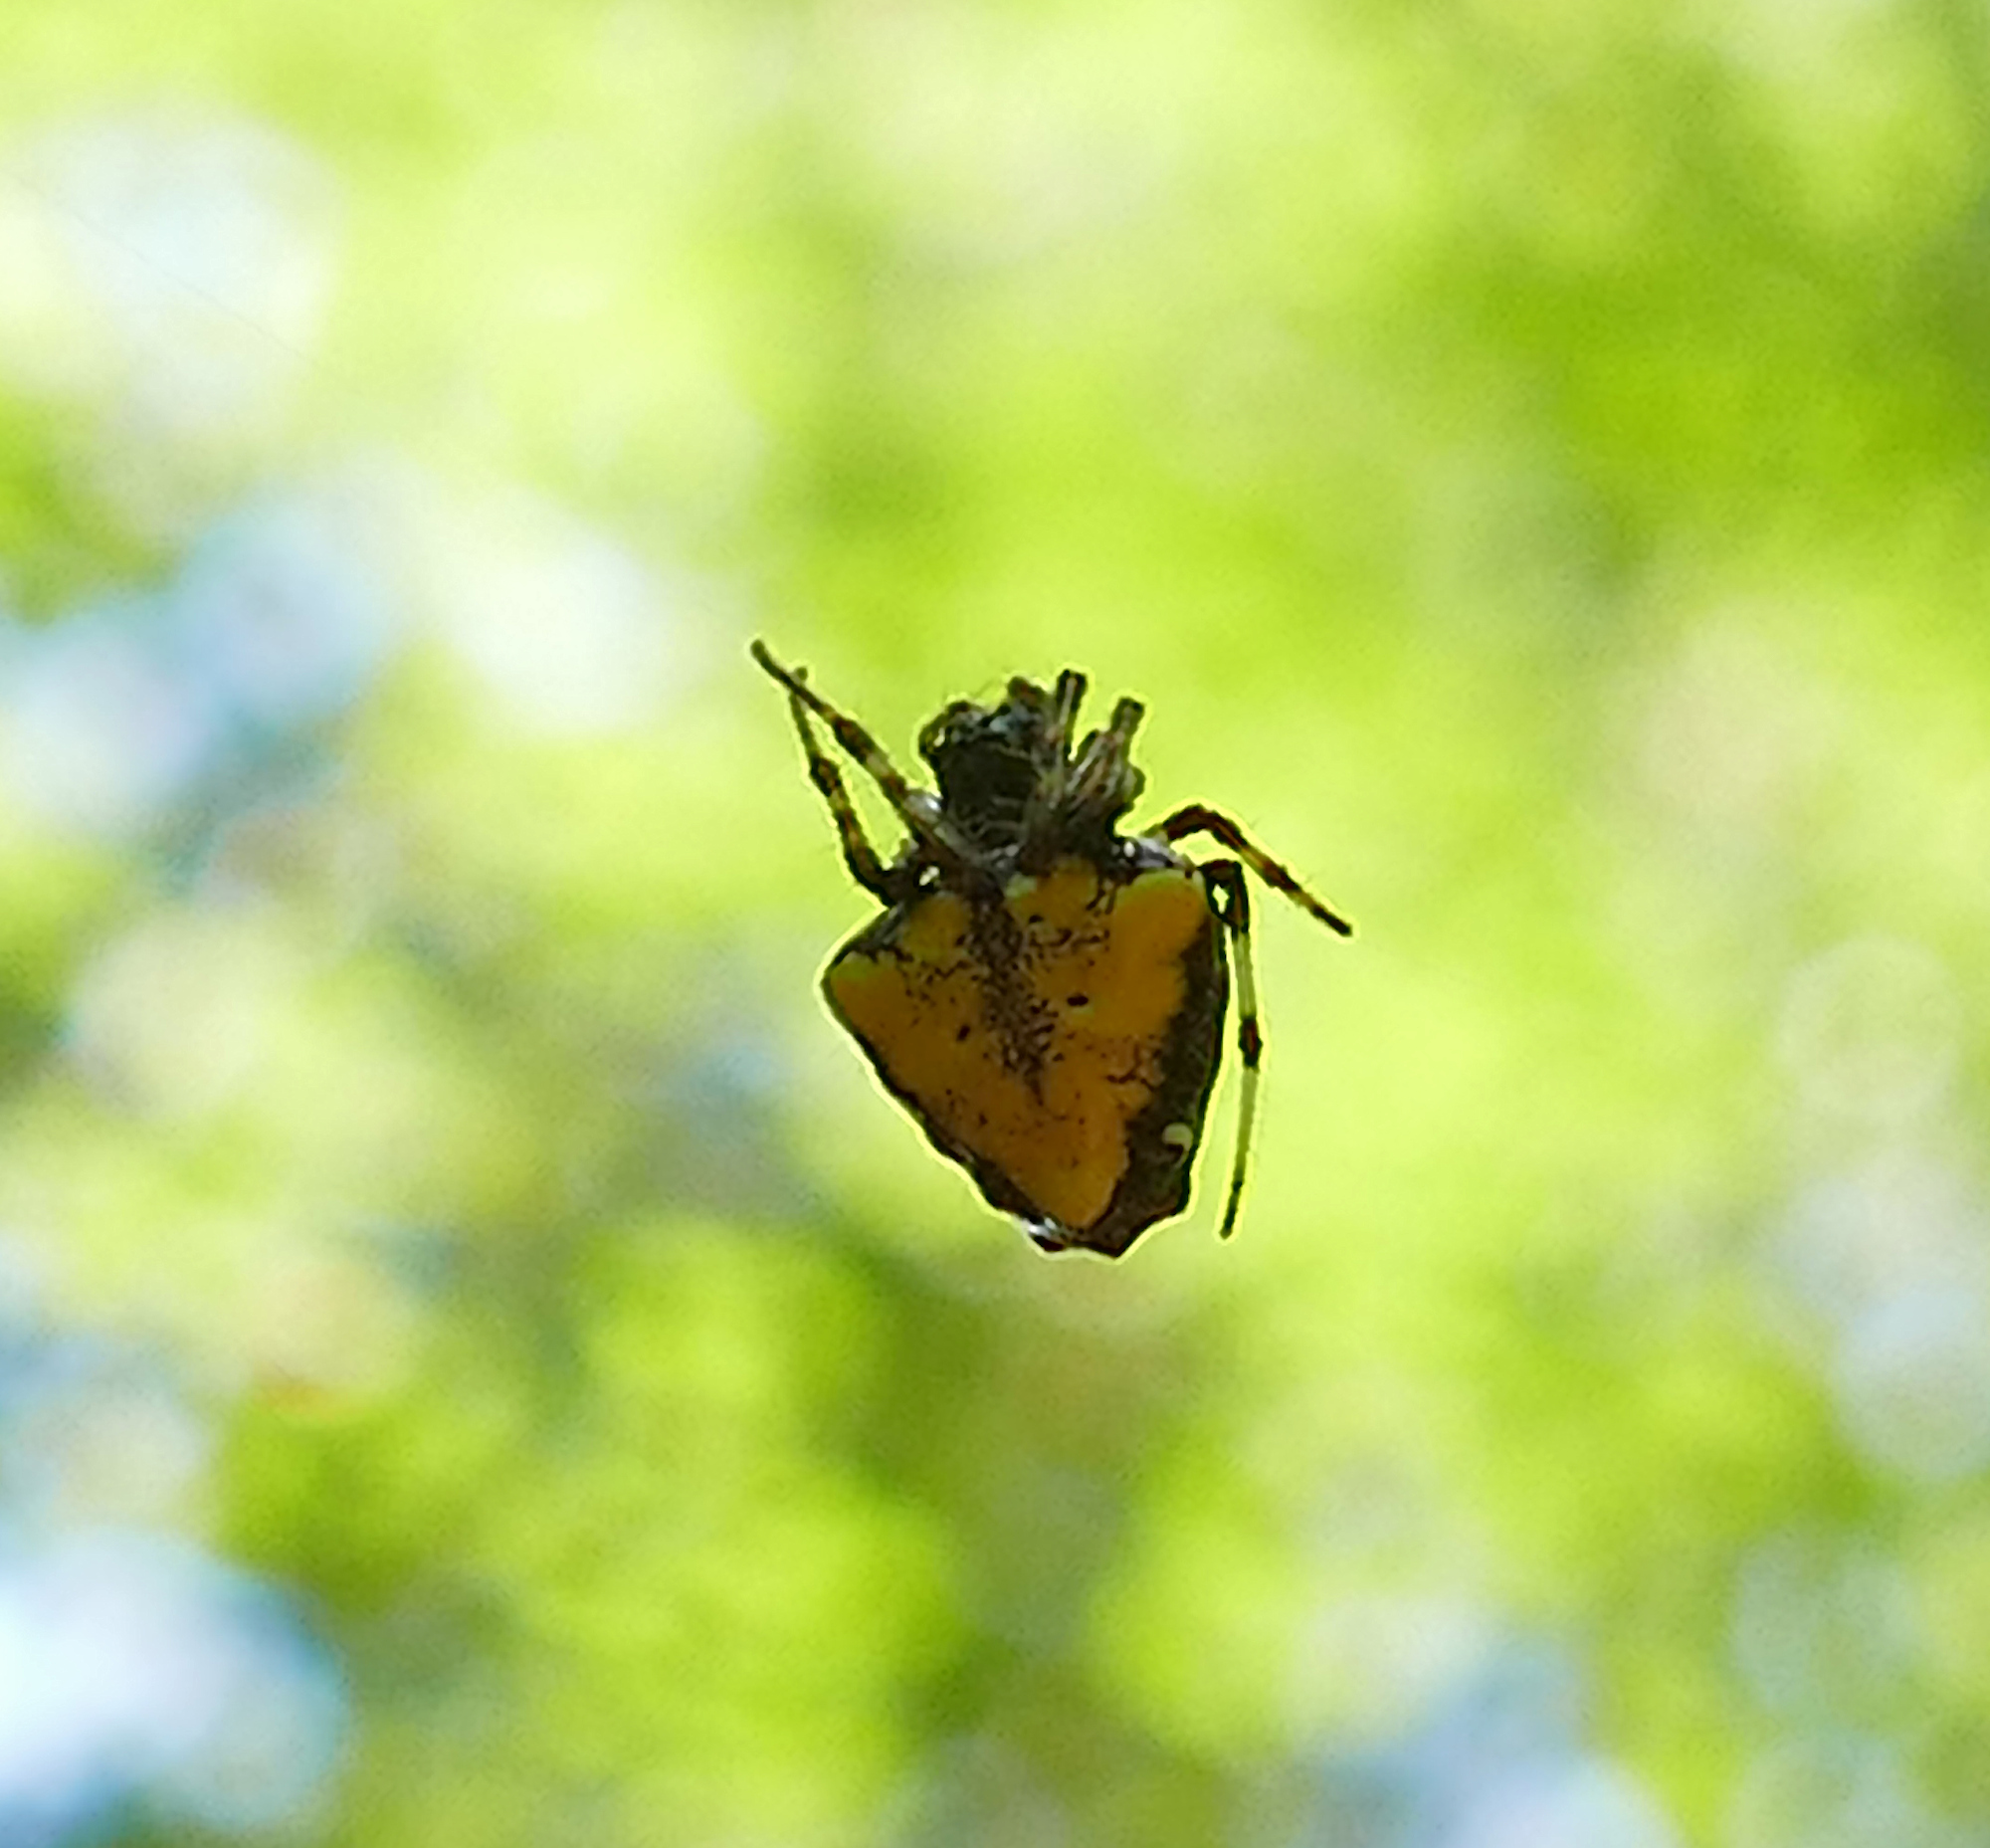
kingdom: Animalia
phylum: Arthropoda
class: Arachnida
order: Araneae
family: Araneidae
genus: Verrucosa
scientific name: Verrucosa arenata
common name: Orb weavers
